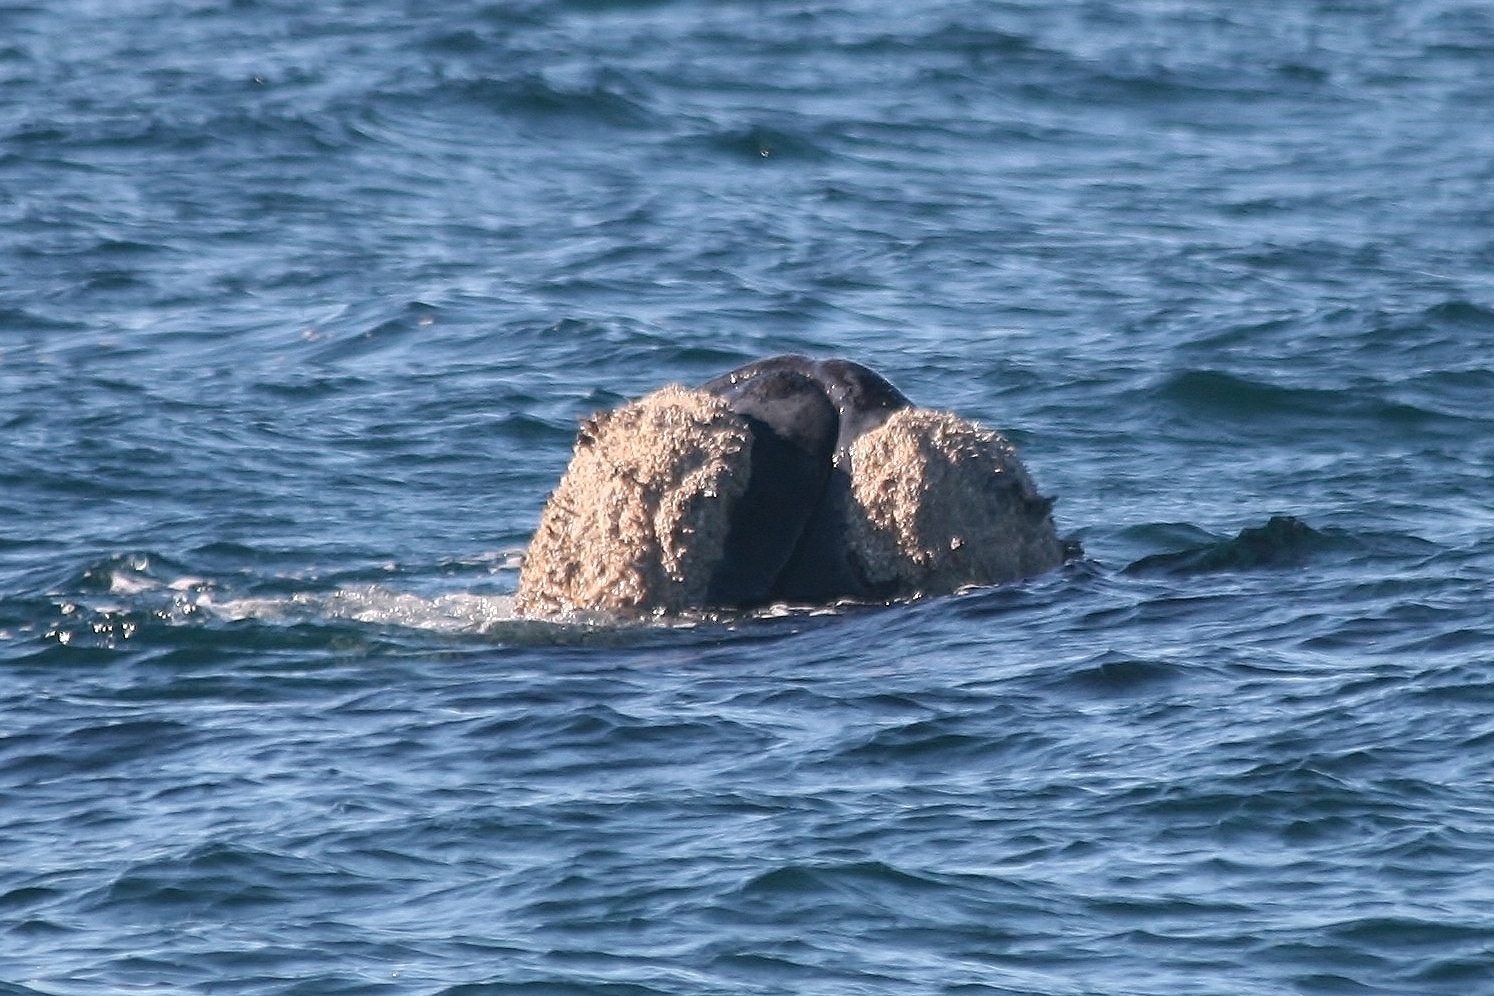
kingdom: Animalia
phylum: Chordata
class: Mammalia
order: Cetacea
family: Balaenidae
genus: Eubalaena
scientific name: Eubalaena australis
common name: Southern right whale
